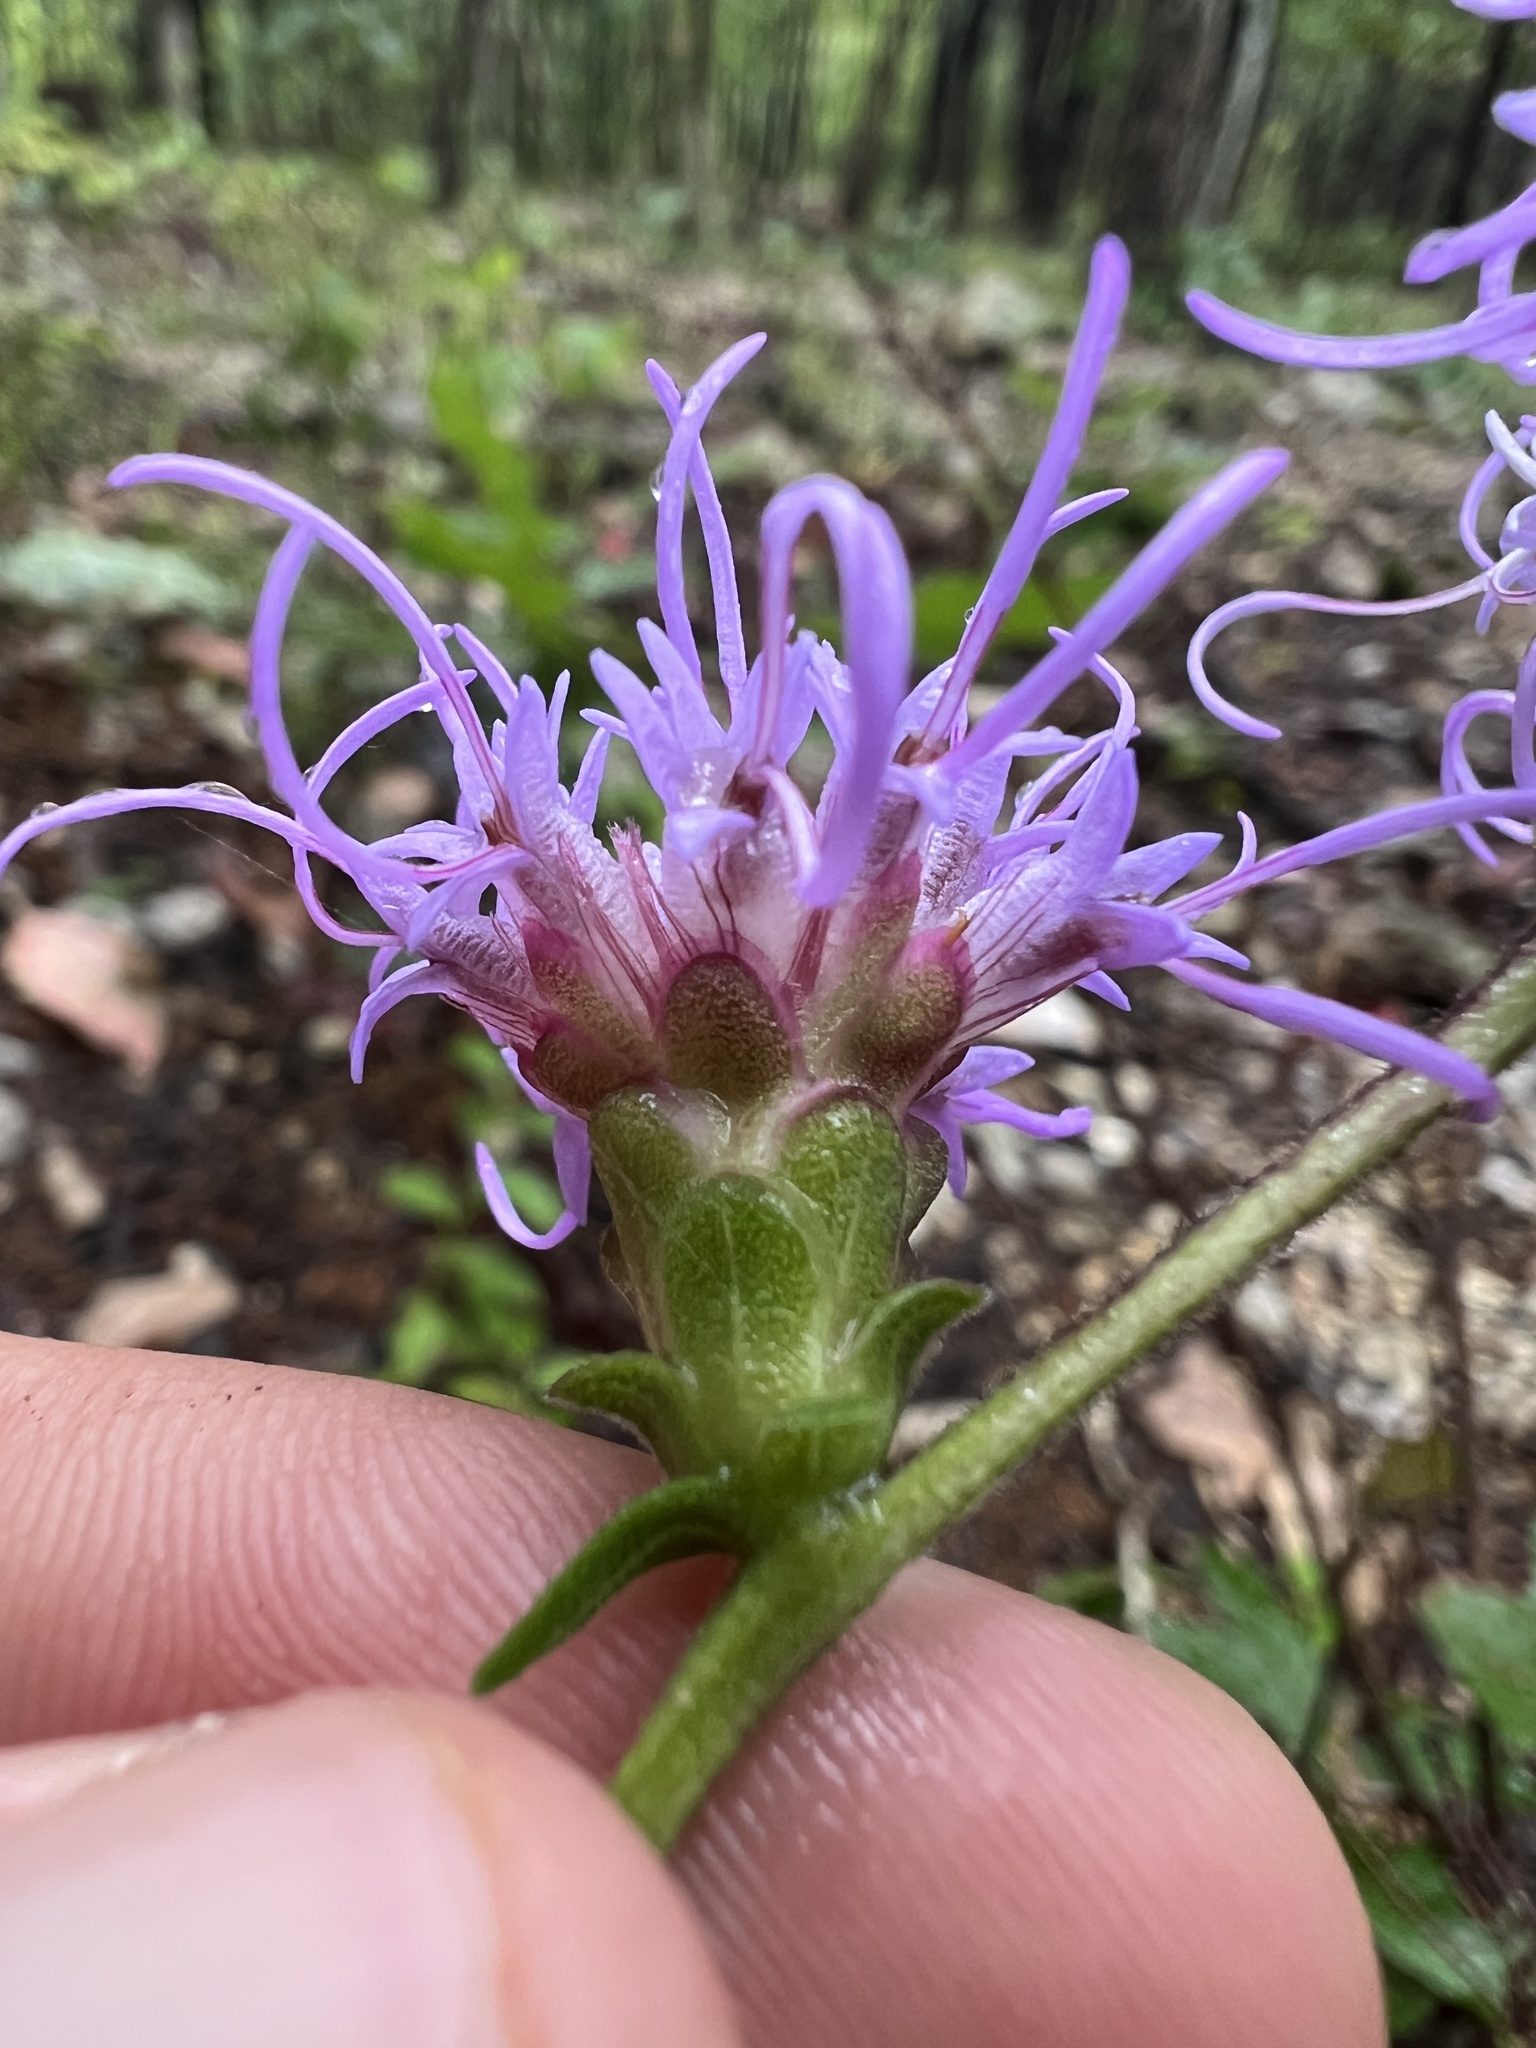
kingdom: Plantae
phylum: Tracheophyta
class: Magnoliopsida
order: Asterales
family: Asteraceae
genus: Liatris
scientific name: Liatris squarrulosa
